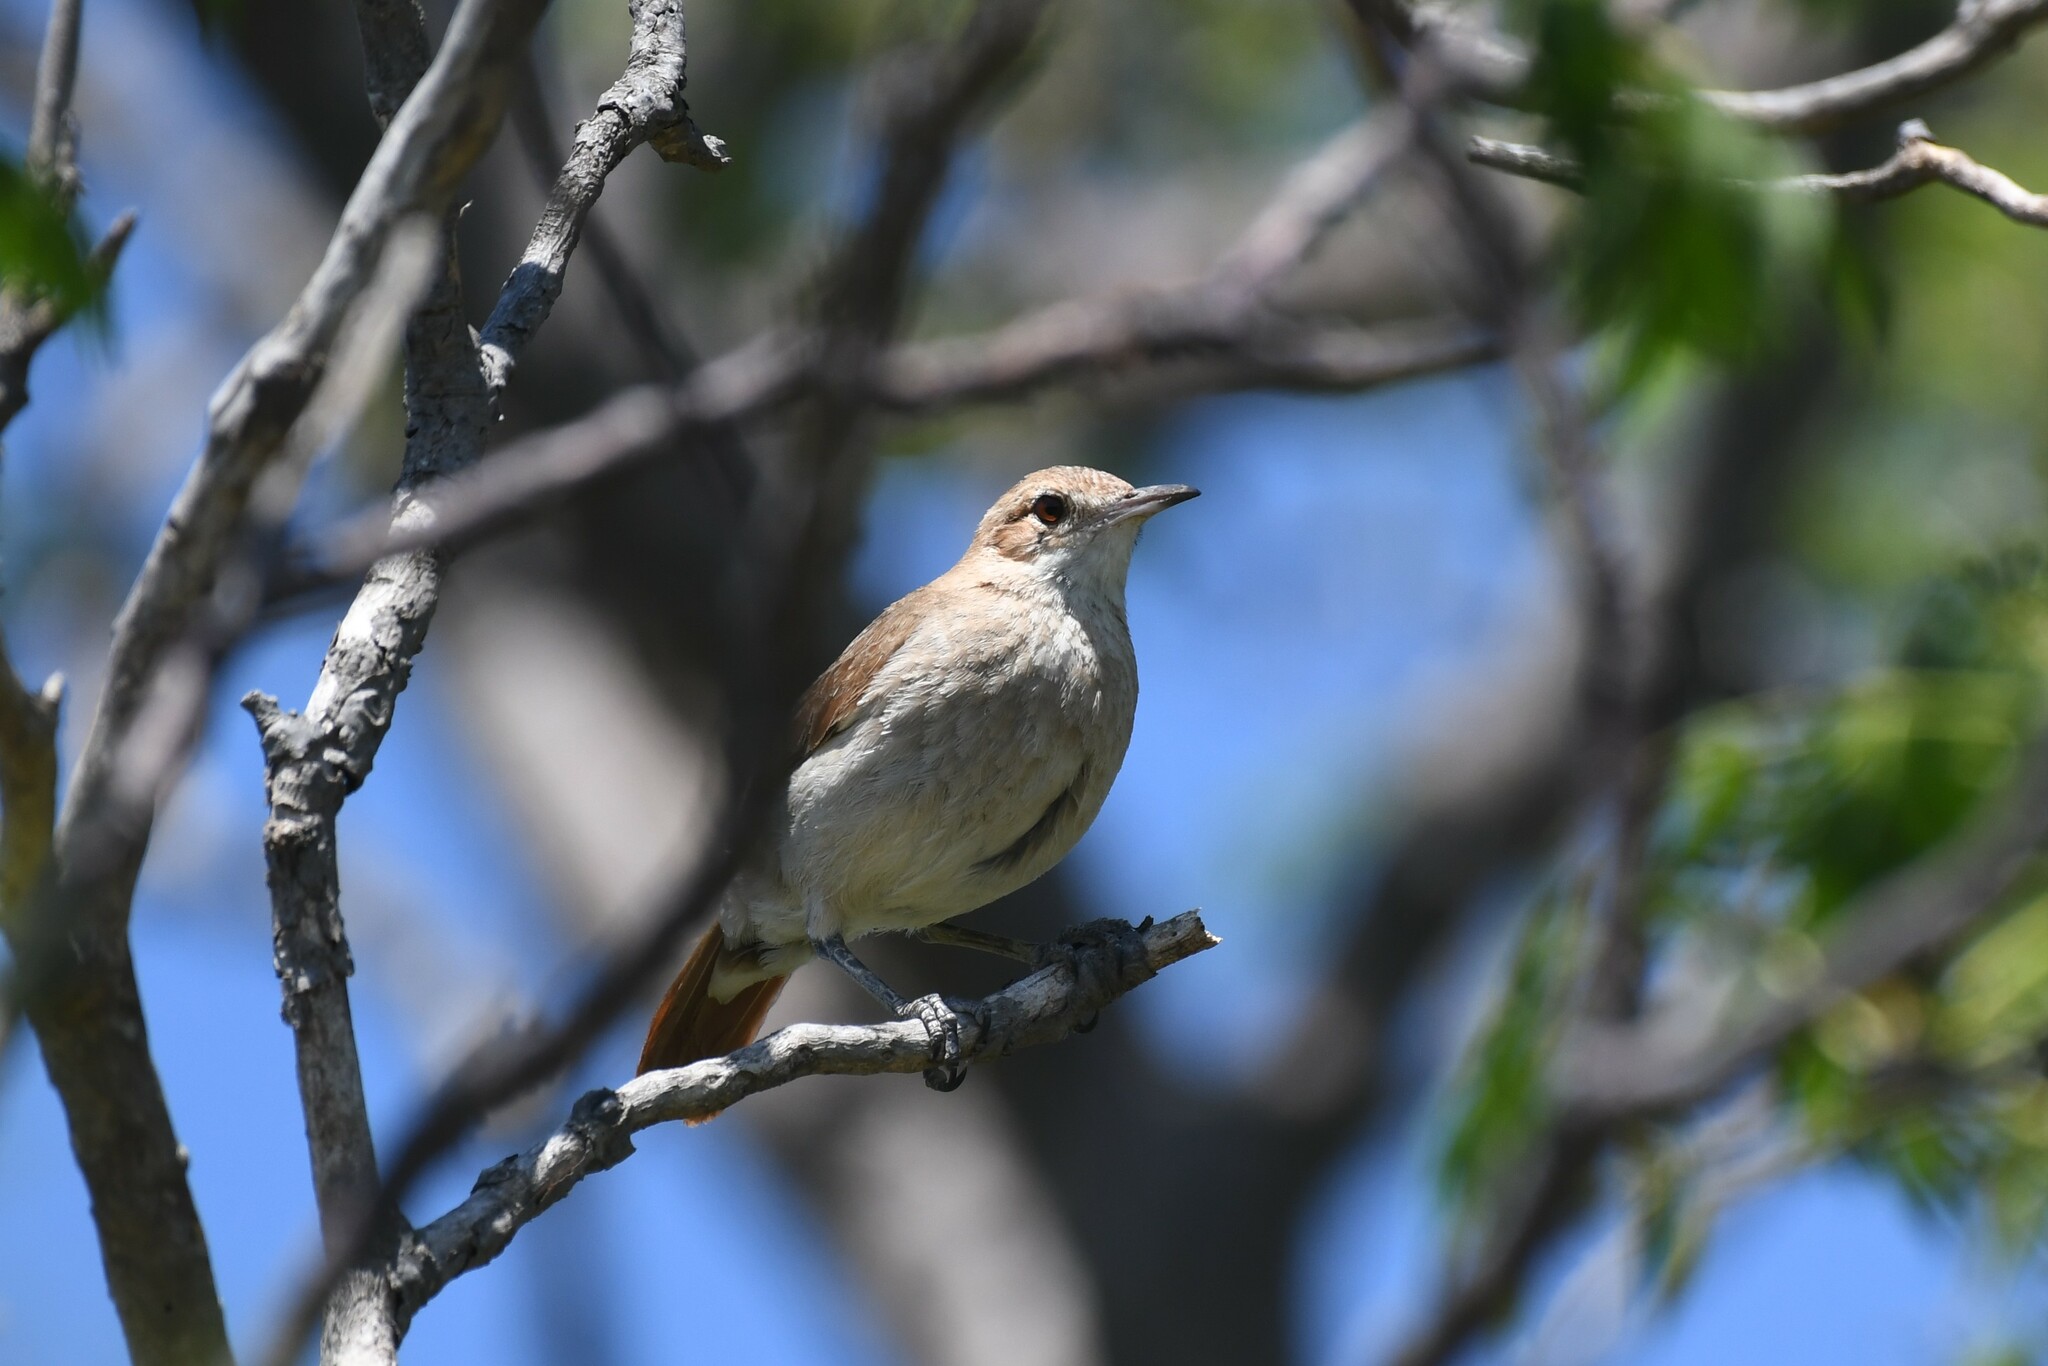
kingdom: Animalia
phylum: Chordata
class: Aves
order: Passeriformes
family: Furnariidae
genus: Furnarius
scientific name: Furnarius rufus
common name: Rufous hornero
